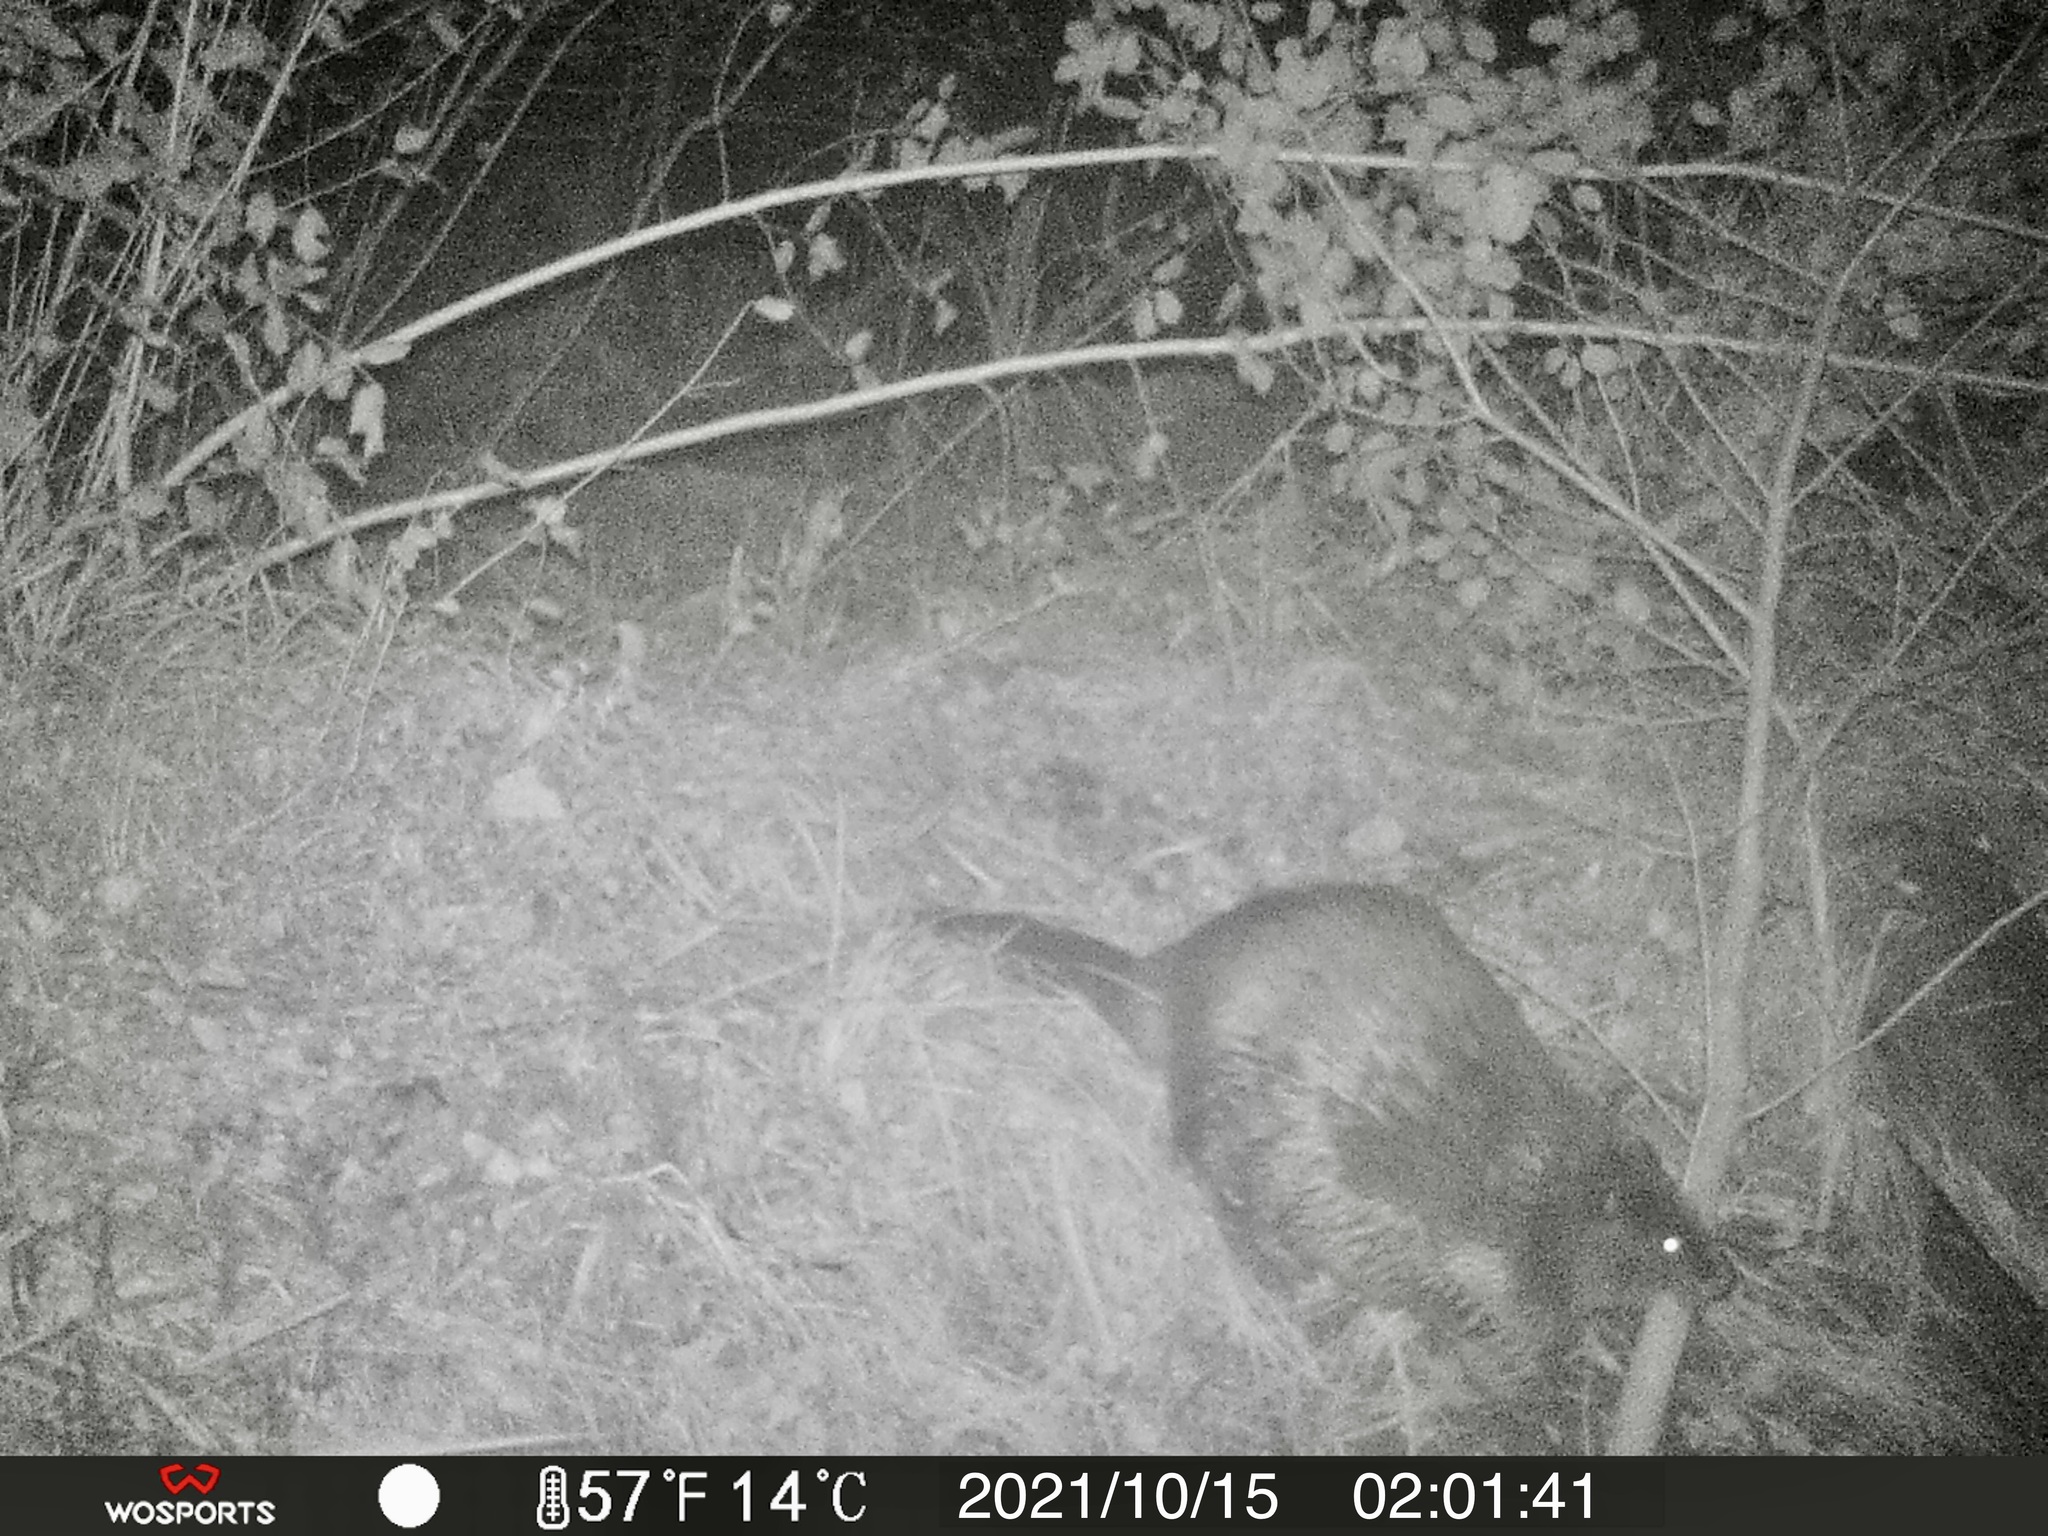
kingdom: Animalia
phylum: Chordata
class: Mammalia
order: Rodentia
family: Castoridae
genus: Castor
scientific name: Castor canadensis
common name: American beaver
